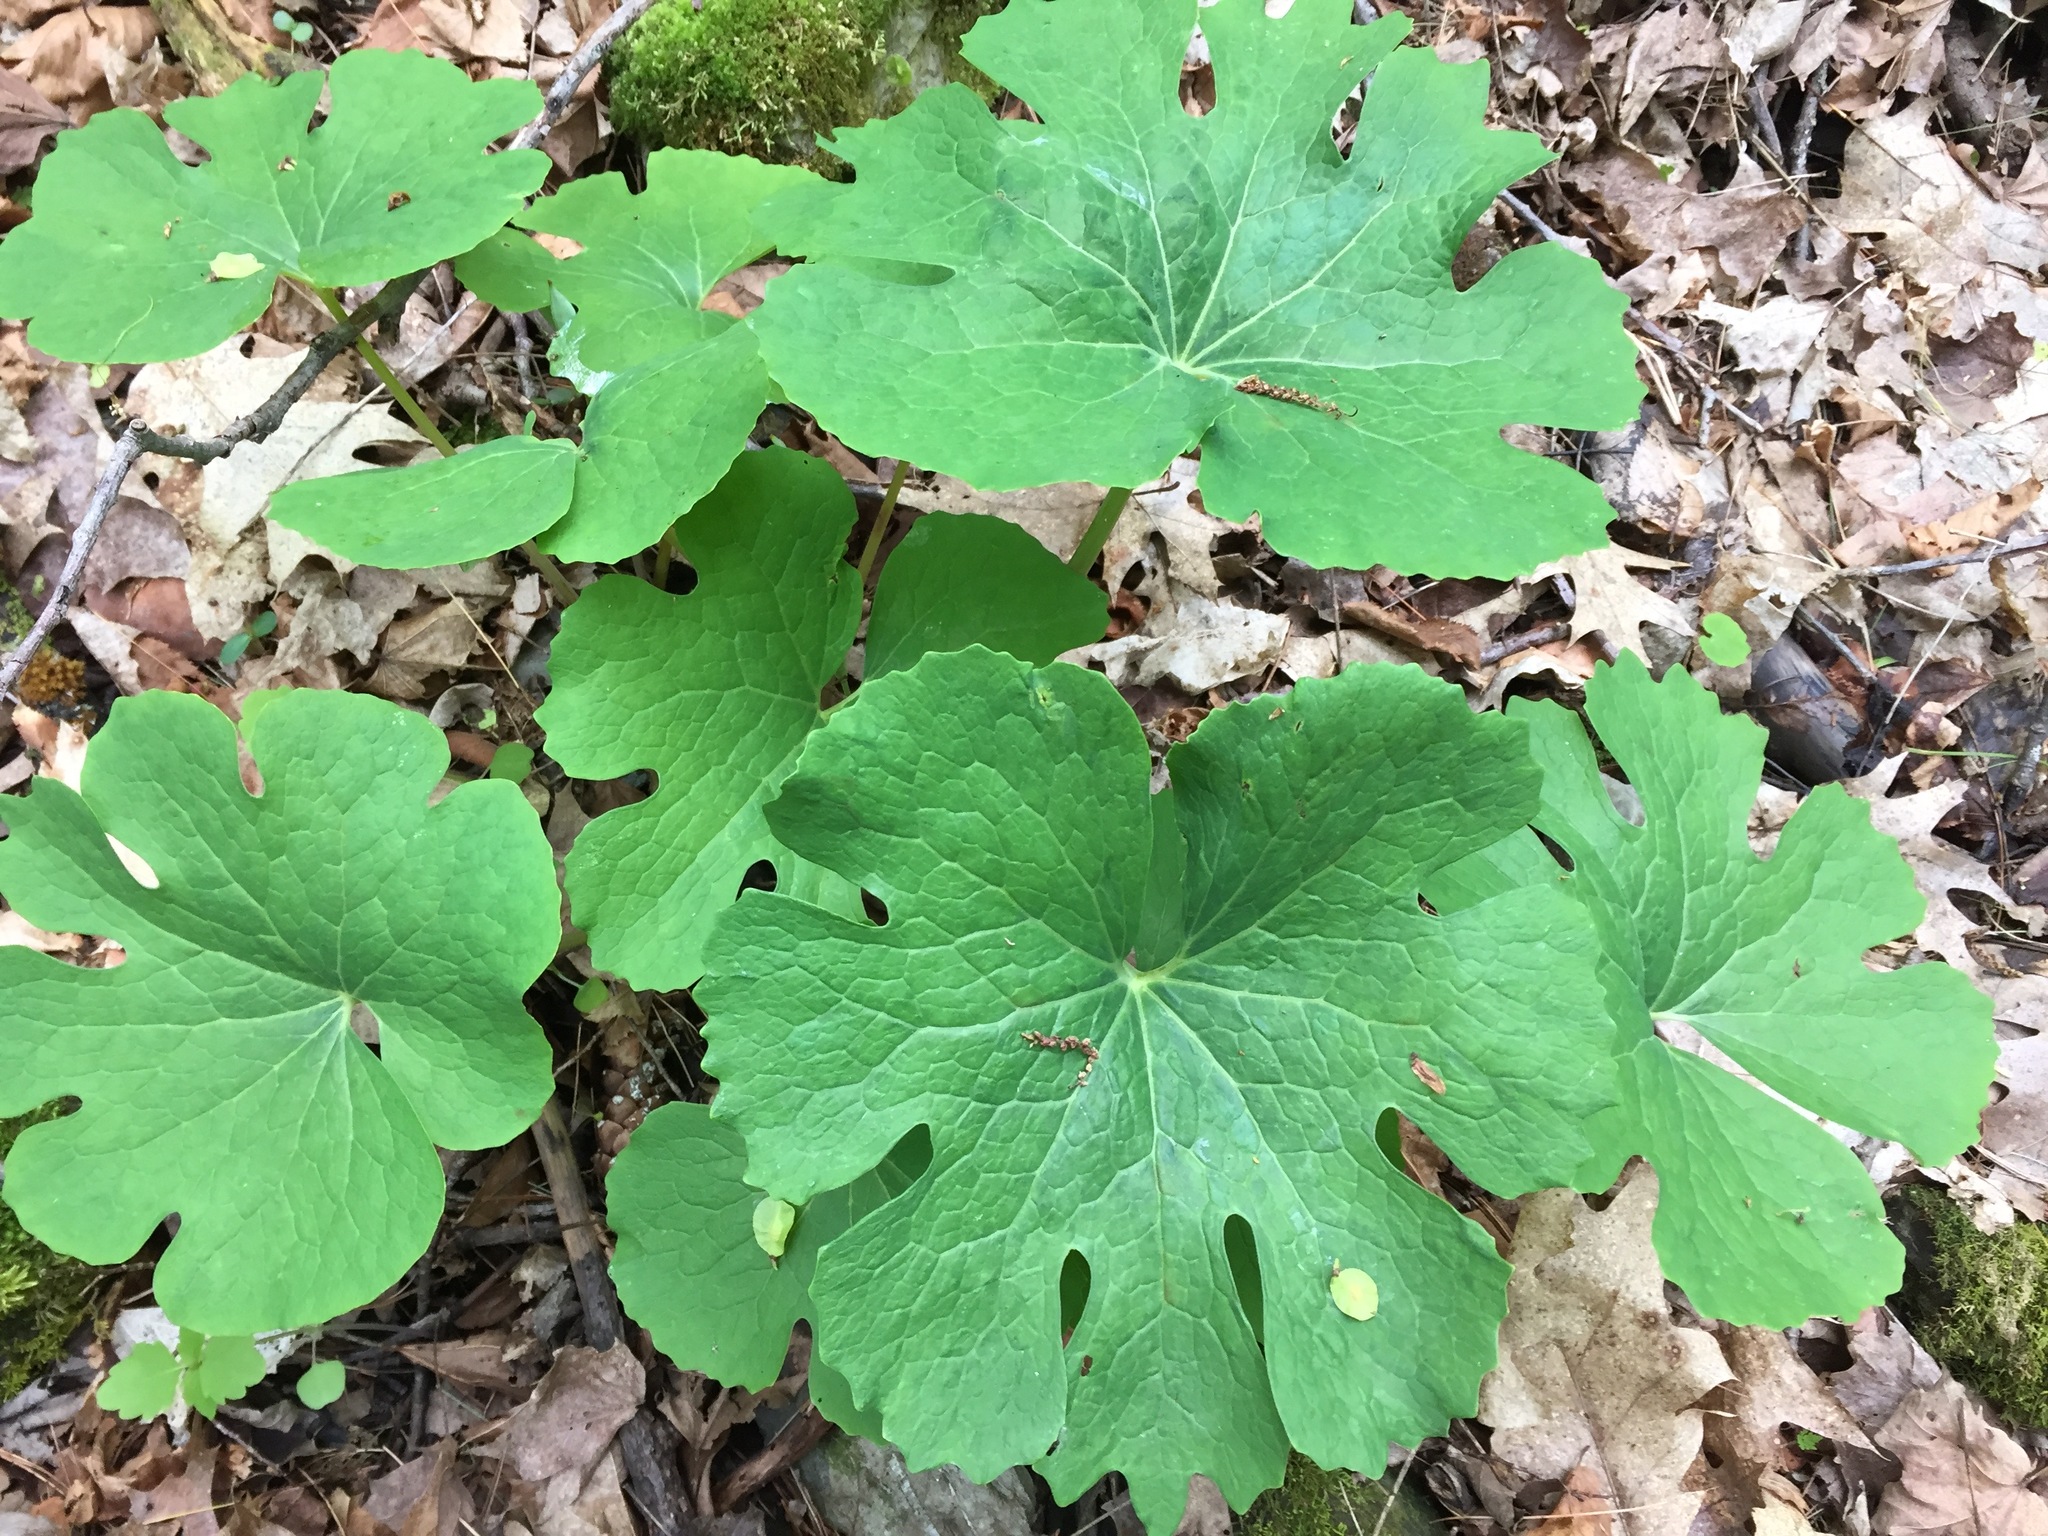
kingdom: Plantae
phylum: Tracheophyta
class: Magnoliopsida
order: Ranunculales
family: Papaveraceae
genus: Sanguinaria
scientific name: Sanguinaria canadensis
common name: Bloodroot
